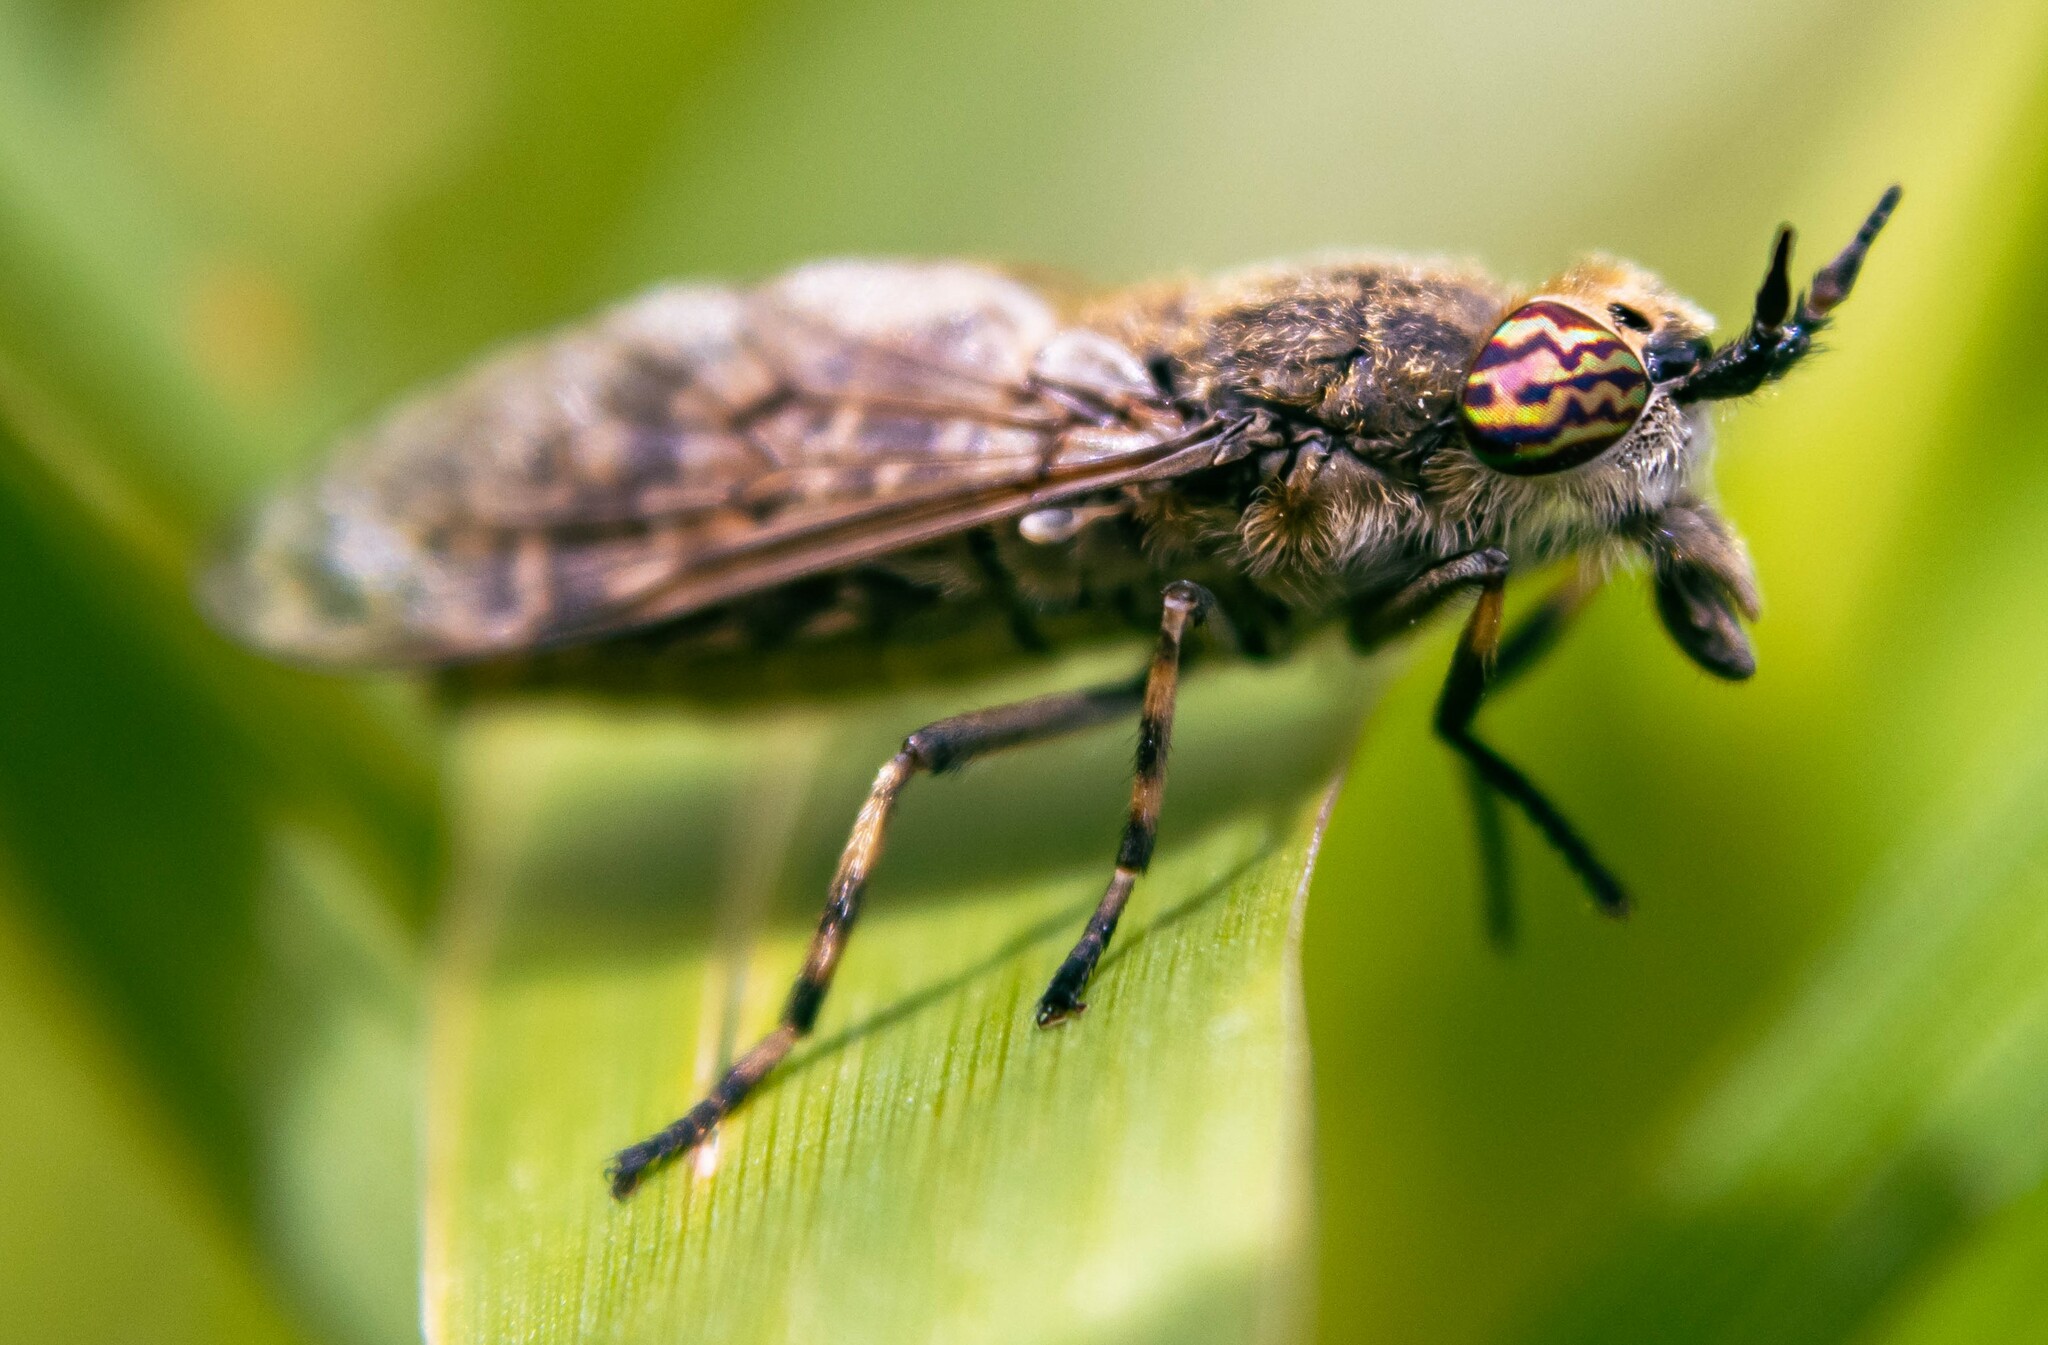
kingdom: Animalia
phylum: Arthropoda
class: Insecta
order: Diptera
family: Tabanidae
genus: Haematopota
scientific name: Haematopota pluvialis
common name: Common horse fly
